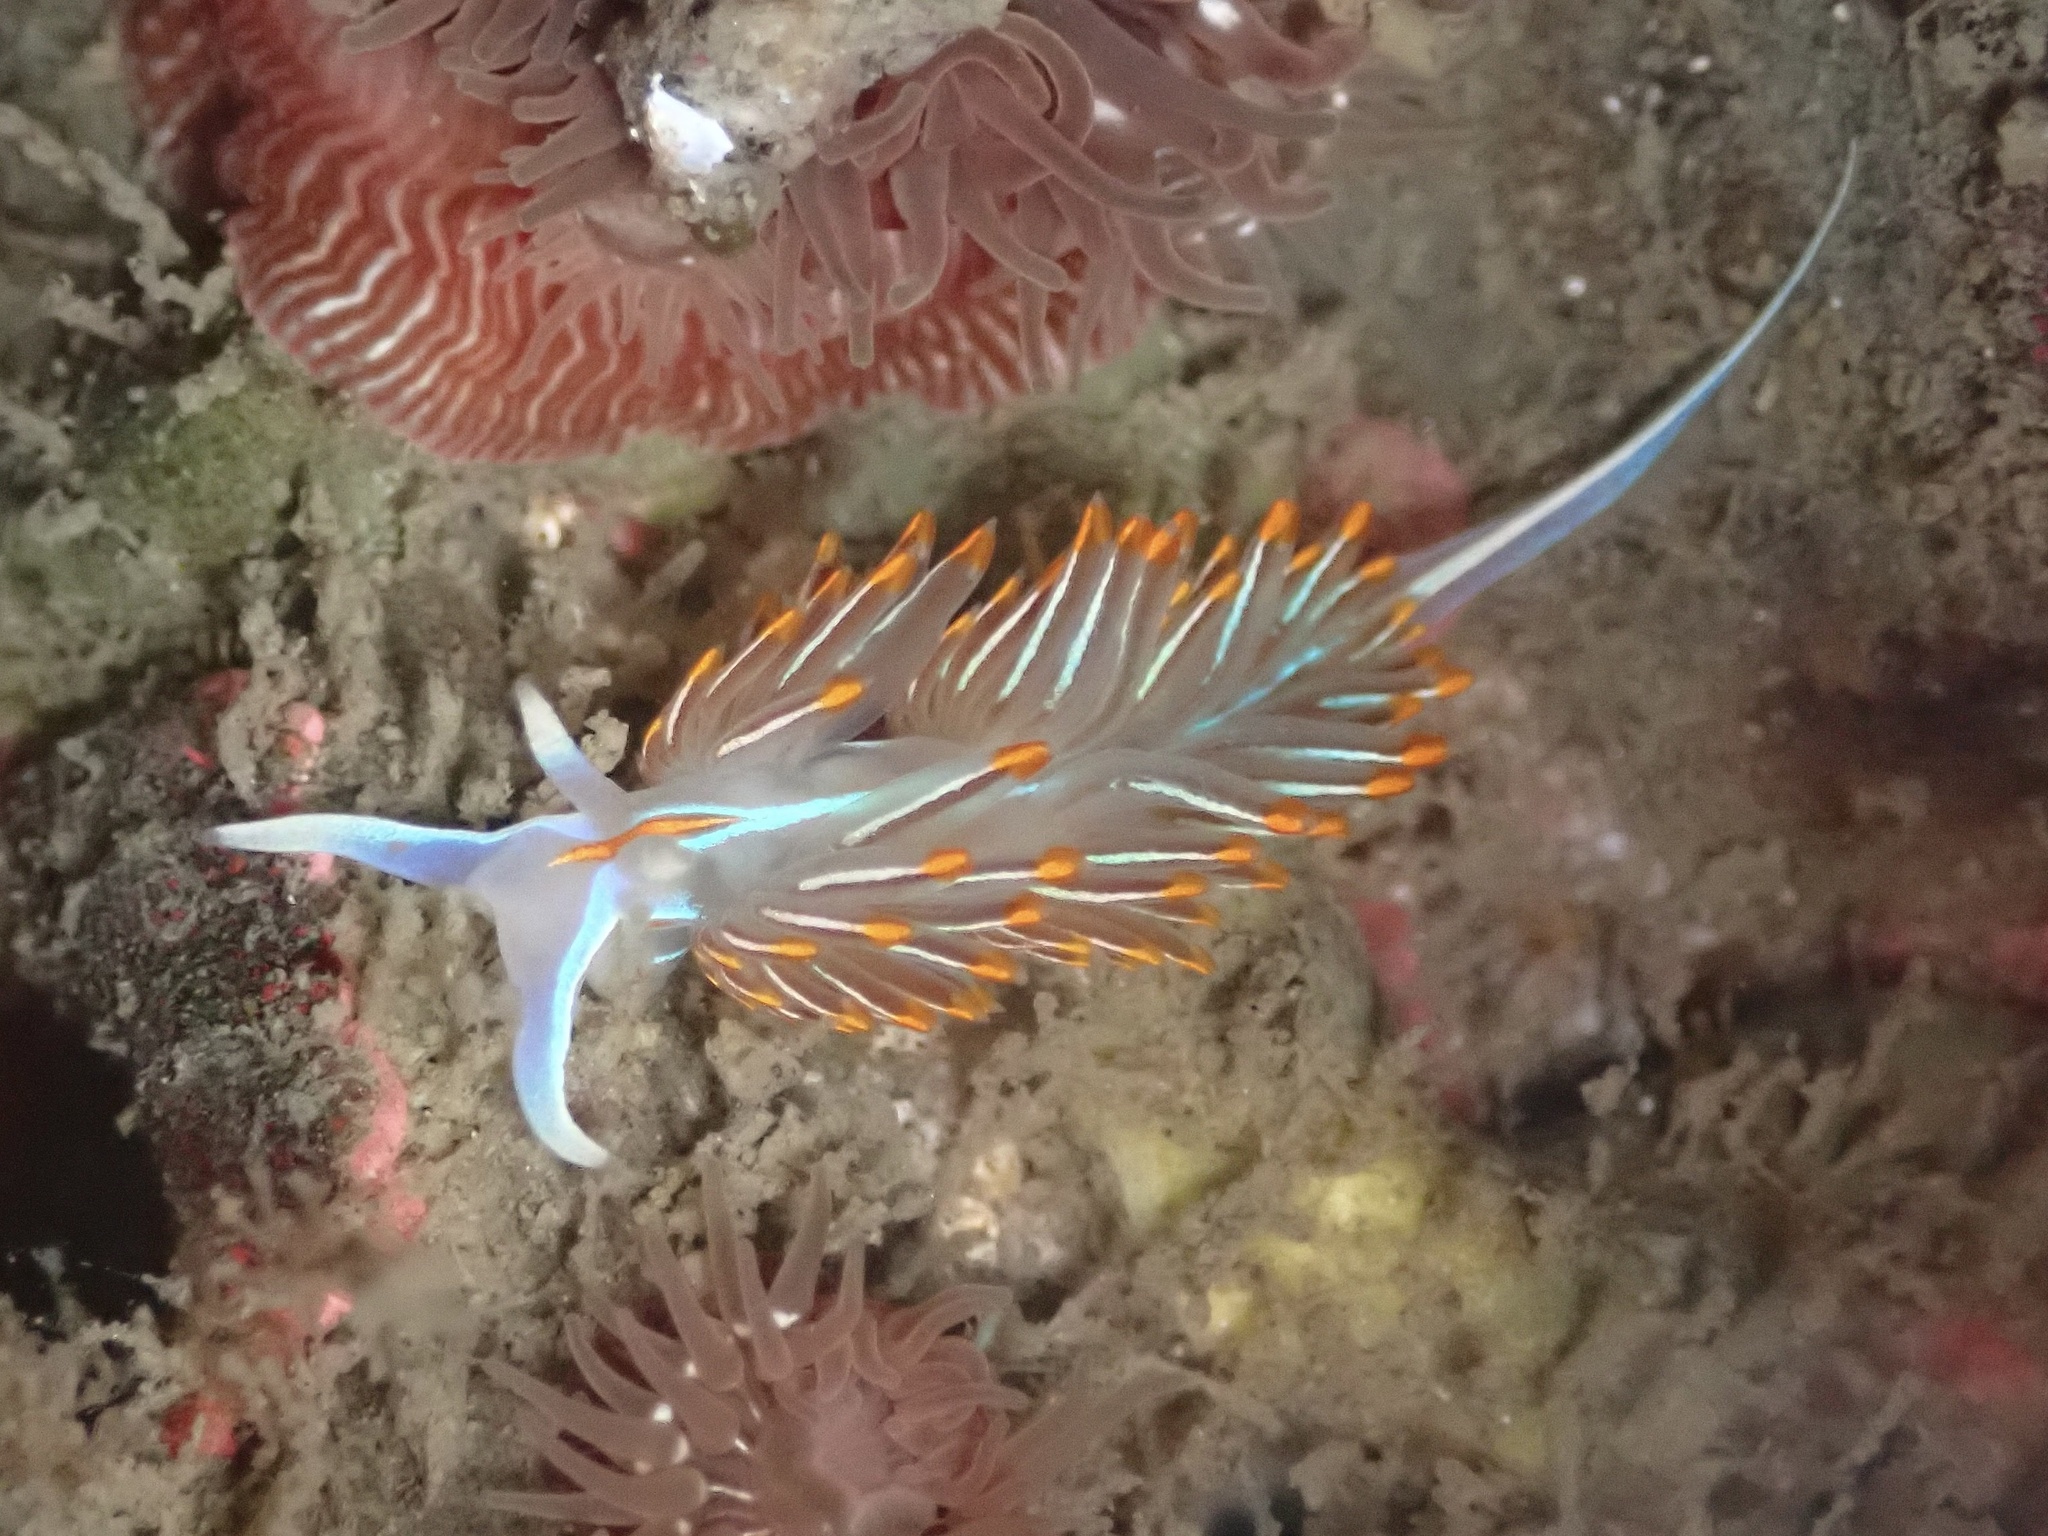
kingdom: Animalia
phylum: Mollusca
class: Gastropoda
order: Nudibranchia
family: Myrrhinidae
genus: Hermissenda
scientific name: Hermissenda crassicornis
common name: Hermissenda
